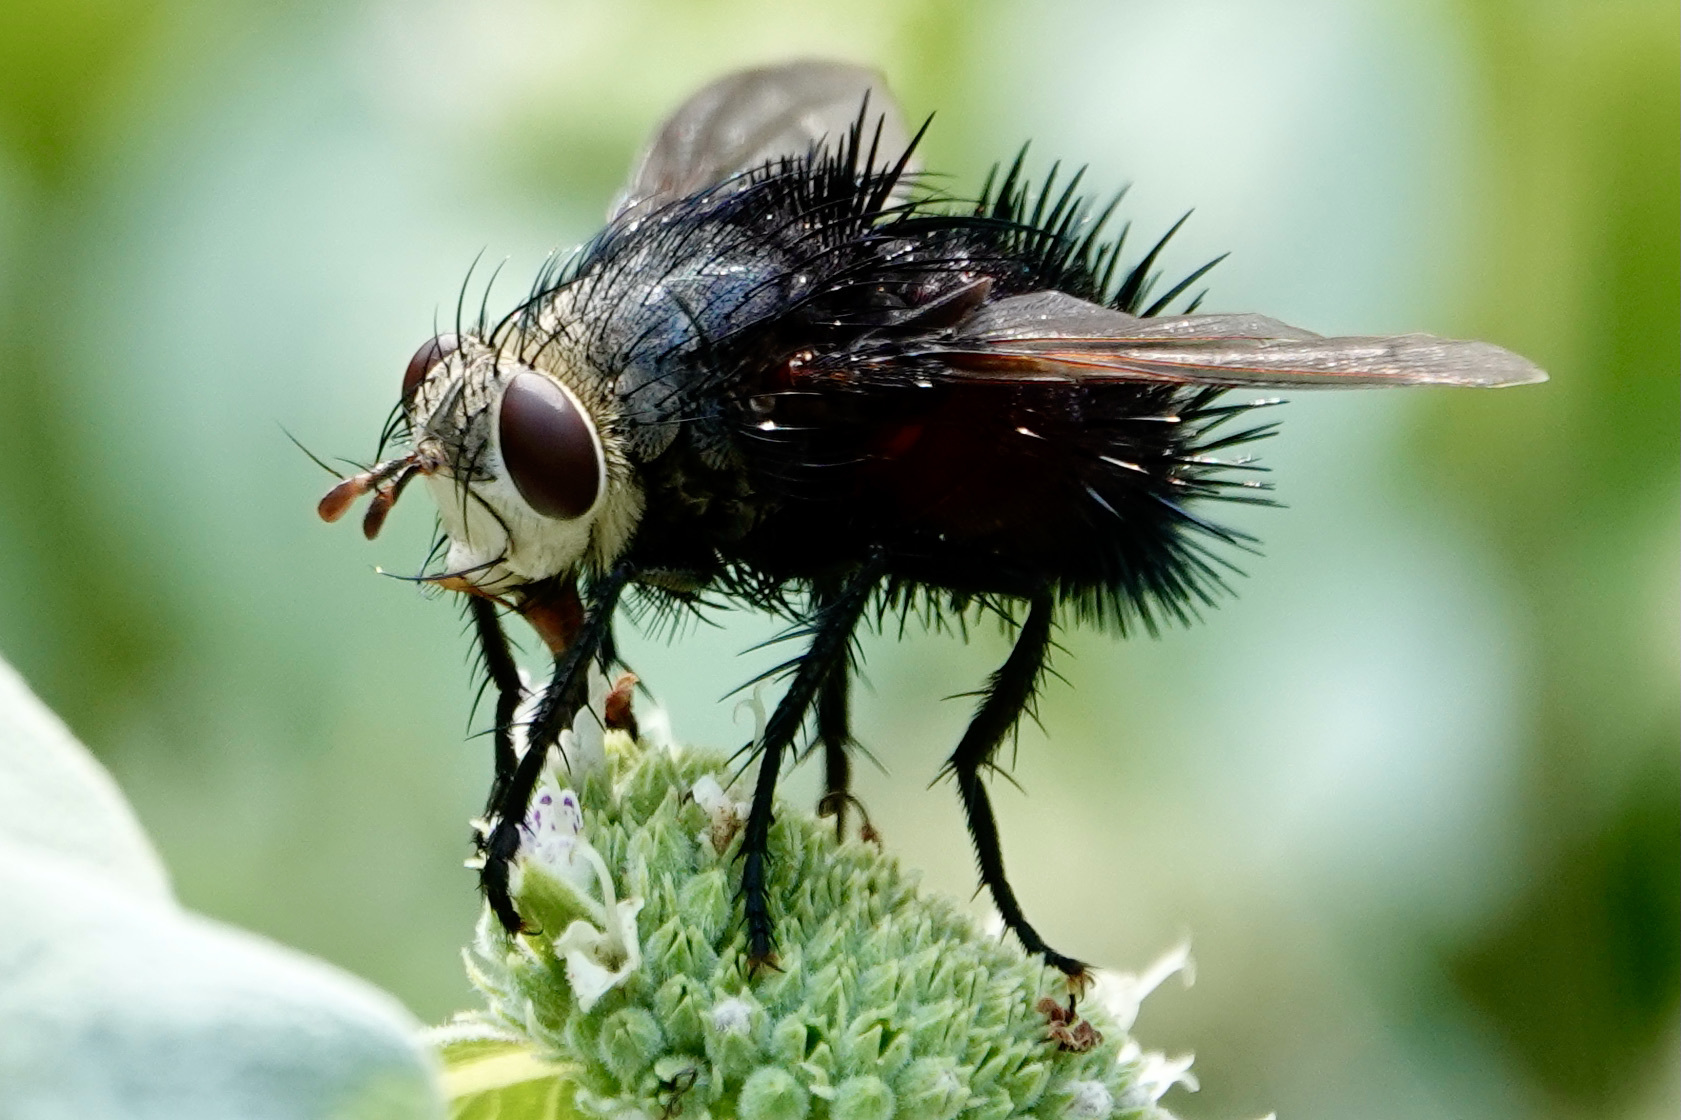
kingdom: Animalia
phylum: Arthropoda
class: Insecta
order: Diptera
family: Tachinidae
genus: Juriniopsis
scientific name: Juriniopsis adusta
